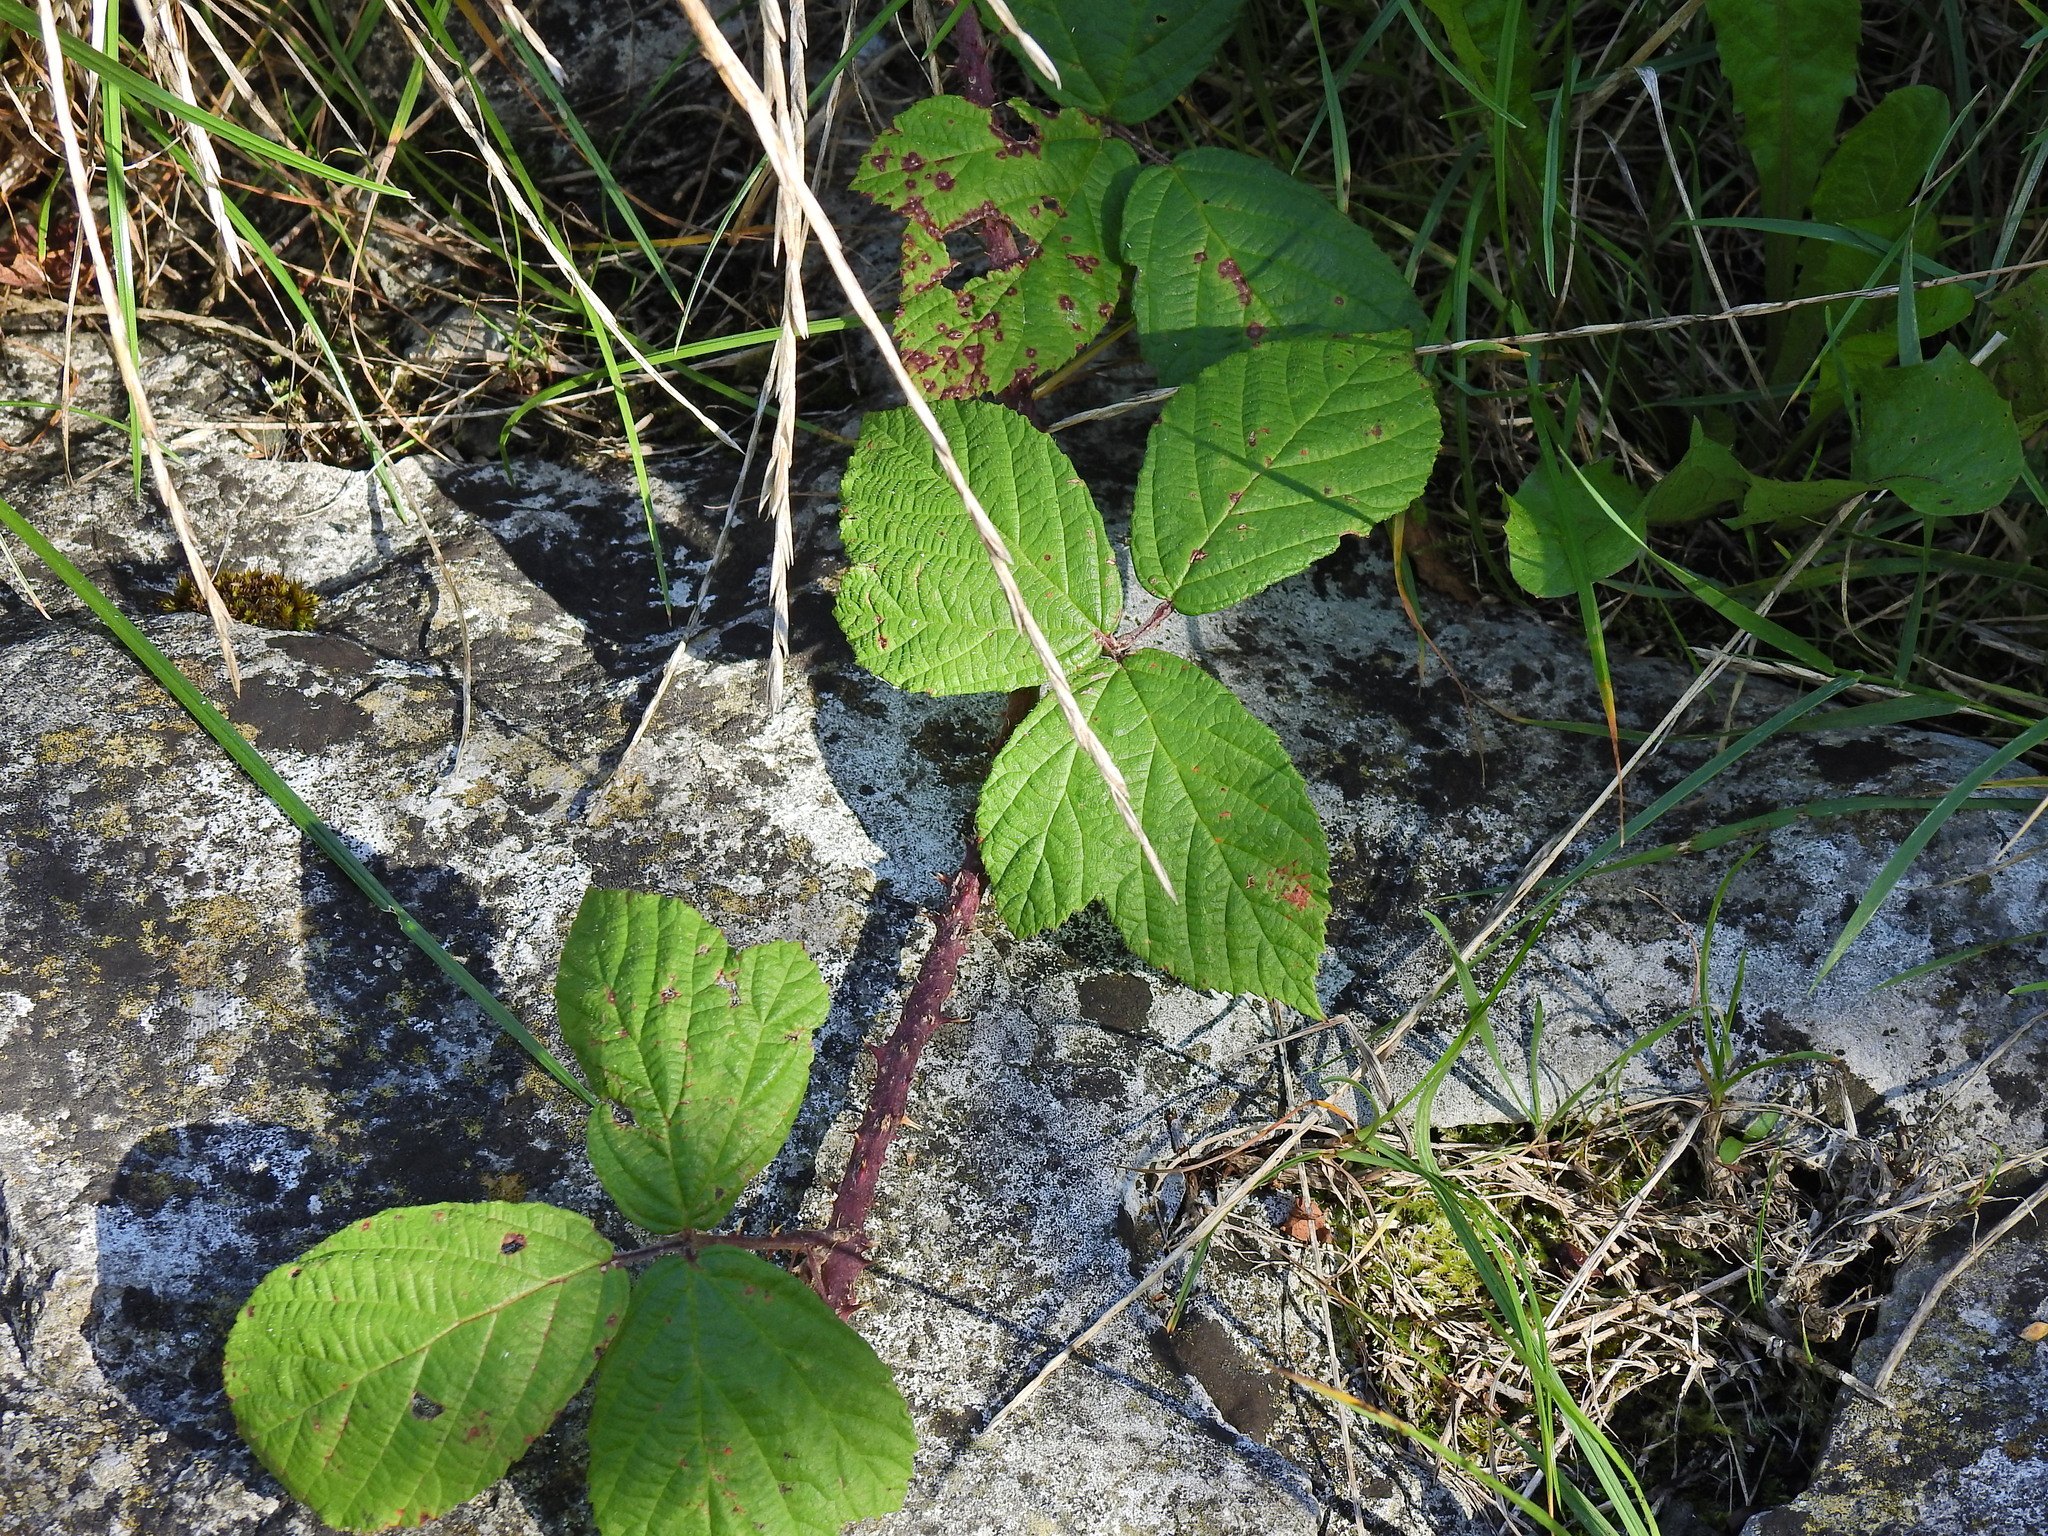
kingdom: Plantae
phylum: Tracheophyta
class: Magnoliopsida
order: Rosales
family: Rosaceae
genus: Rubus
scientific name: Rubus horrefactus
